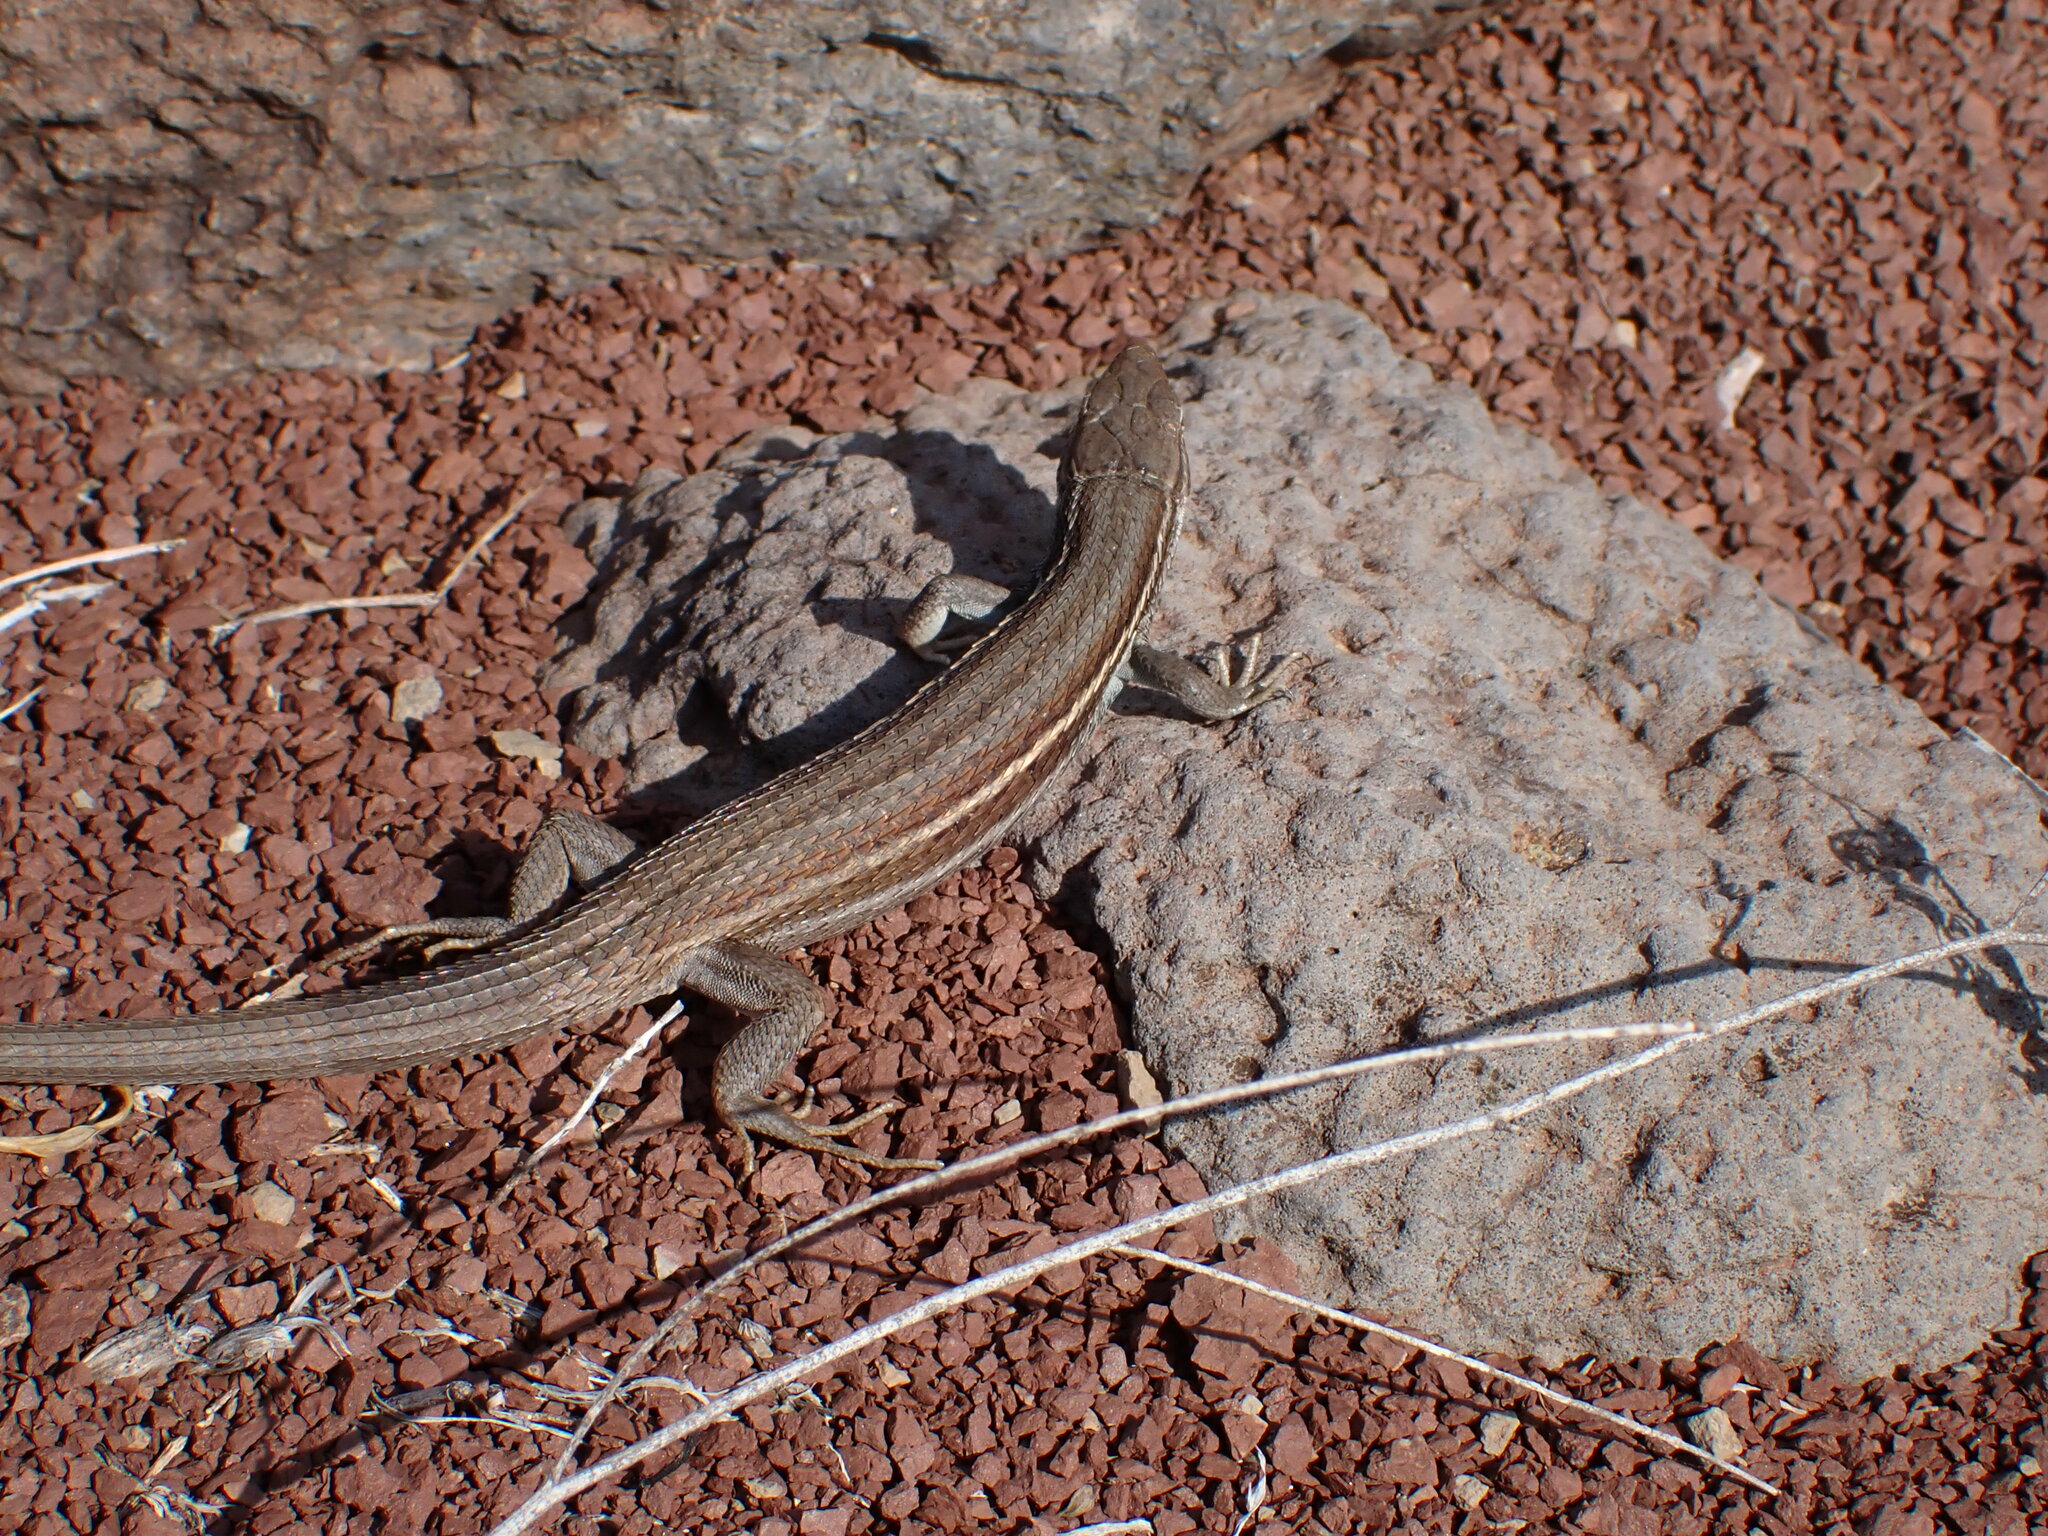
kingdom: Animalia
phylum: Chordata
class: Squamata
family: Lacertidae
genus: Psammodromus
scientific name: Psammodromus algirus
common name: Algerian psammodromus
